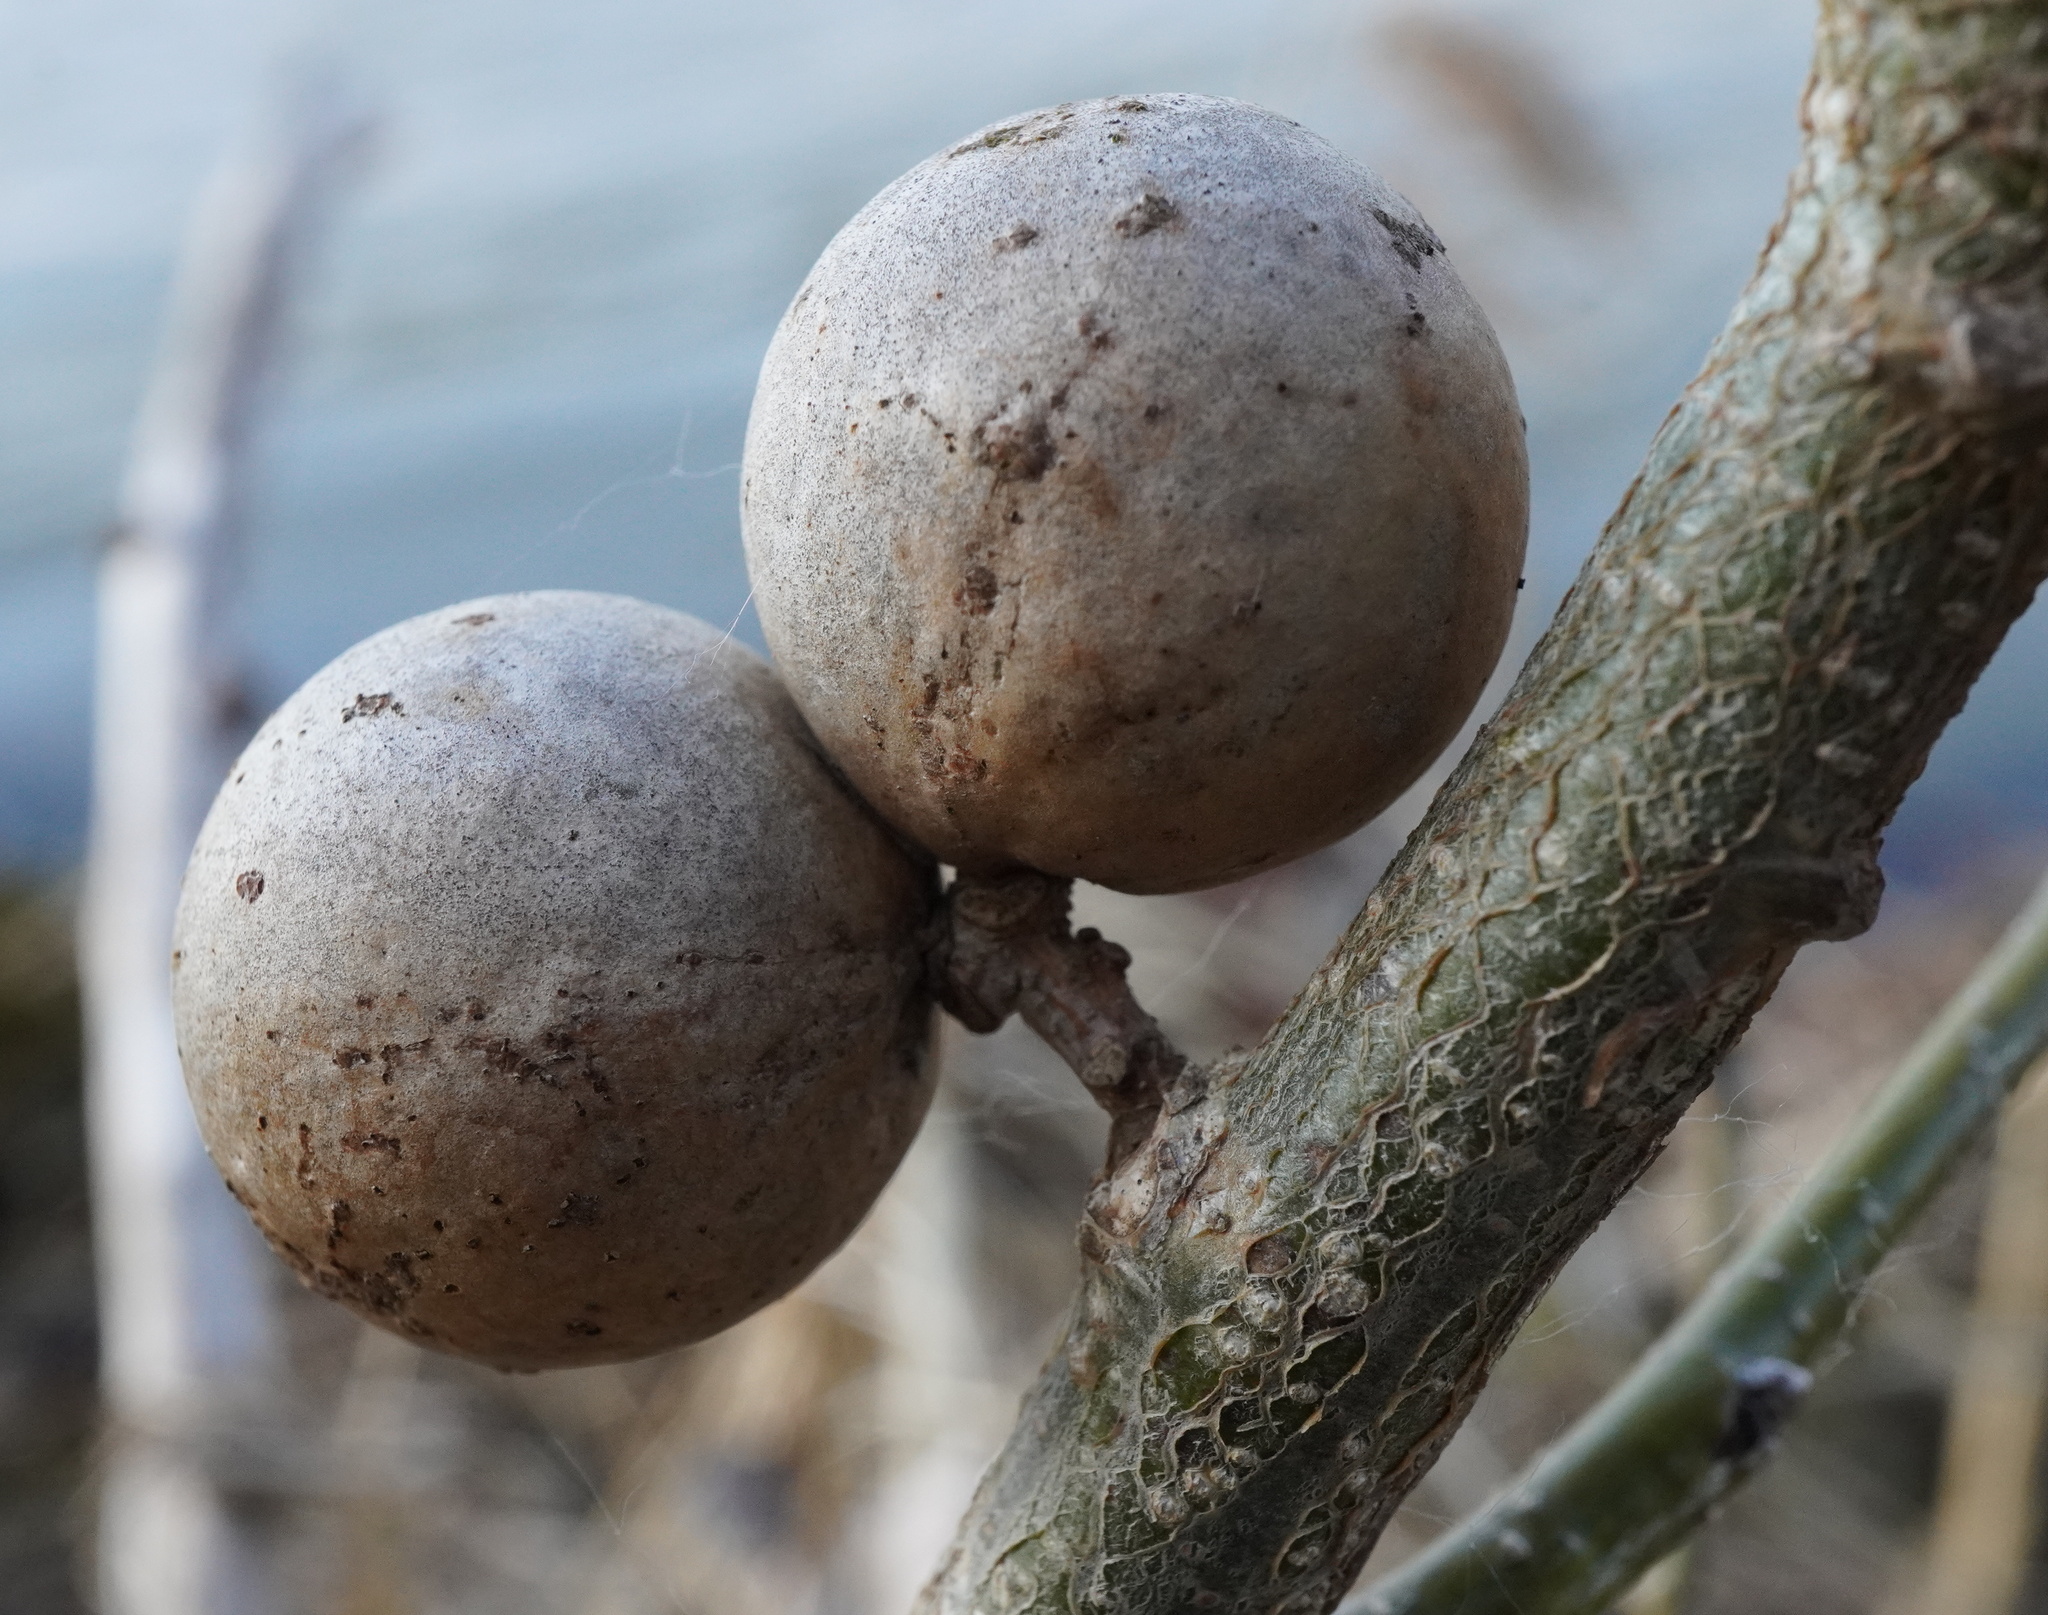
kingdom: Animalia
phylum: Arthropoda
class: Insecta
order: Hymenoptera
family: Cynipidae
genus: Andricus
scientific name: Andricus kollari
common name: Marble gall
